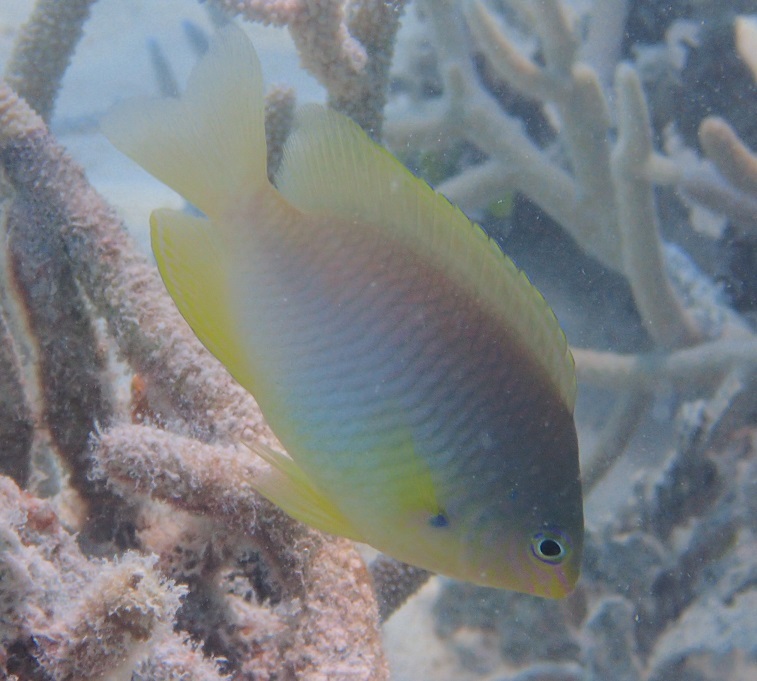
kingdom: Animalia
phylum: Chordata
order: Perciformes
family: Pomacentridae
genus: Pomacentrus
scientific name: Pomacentrus amboinensis
